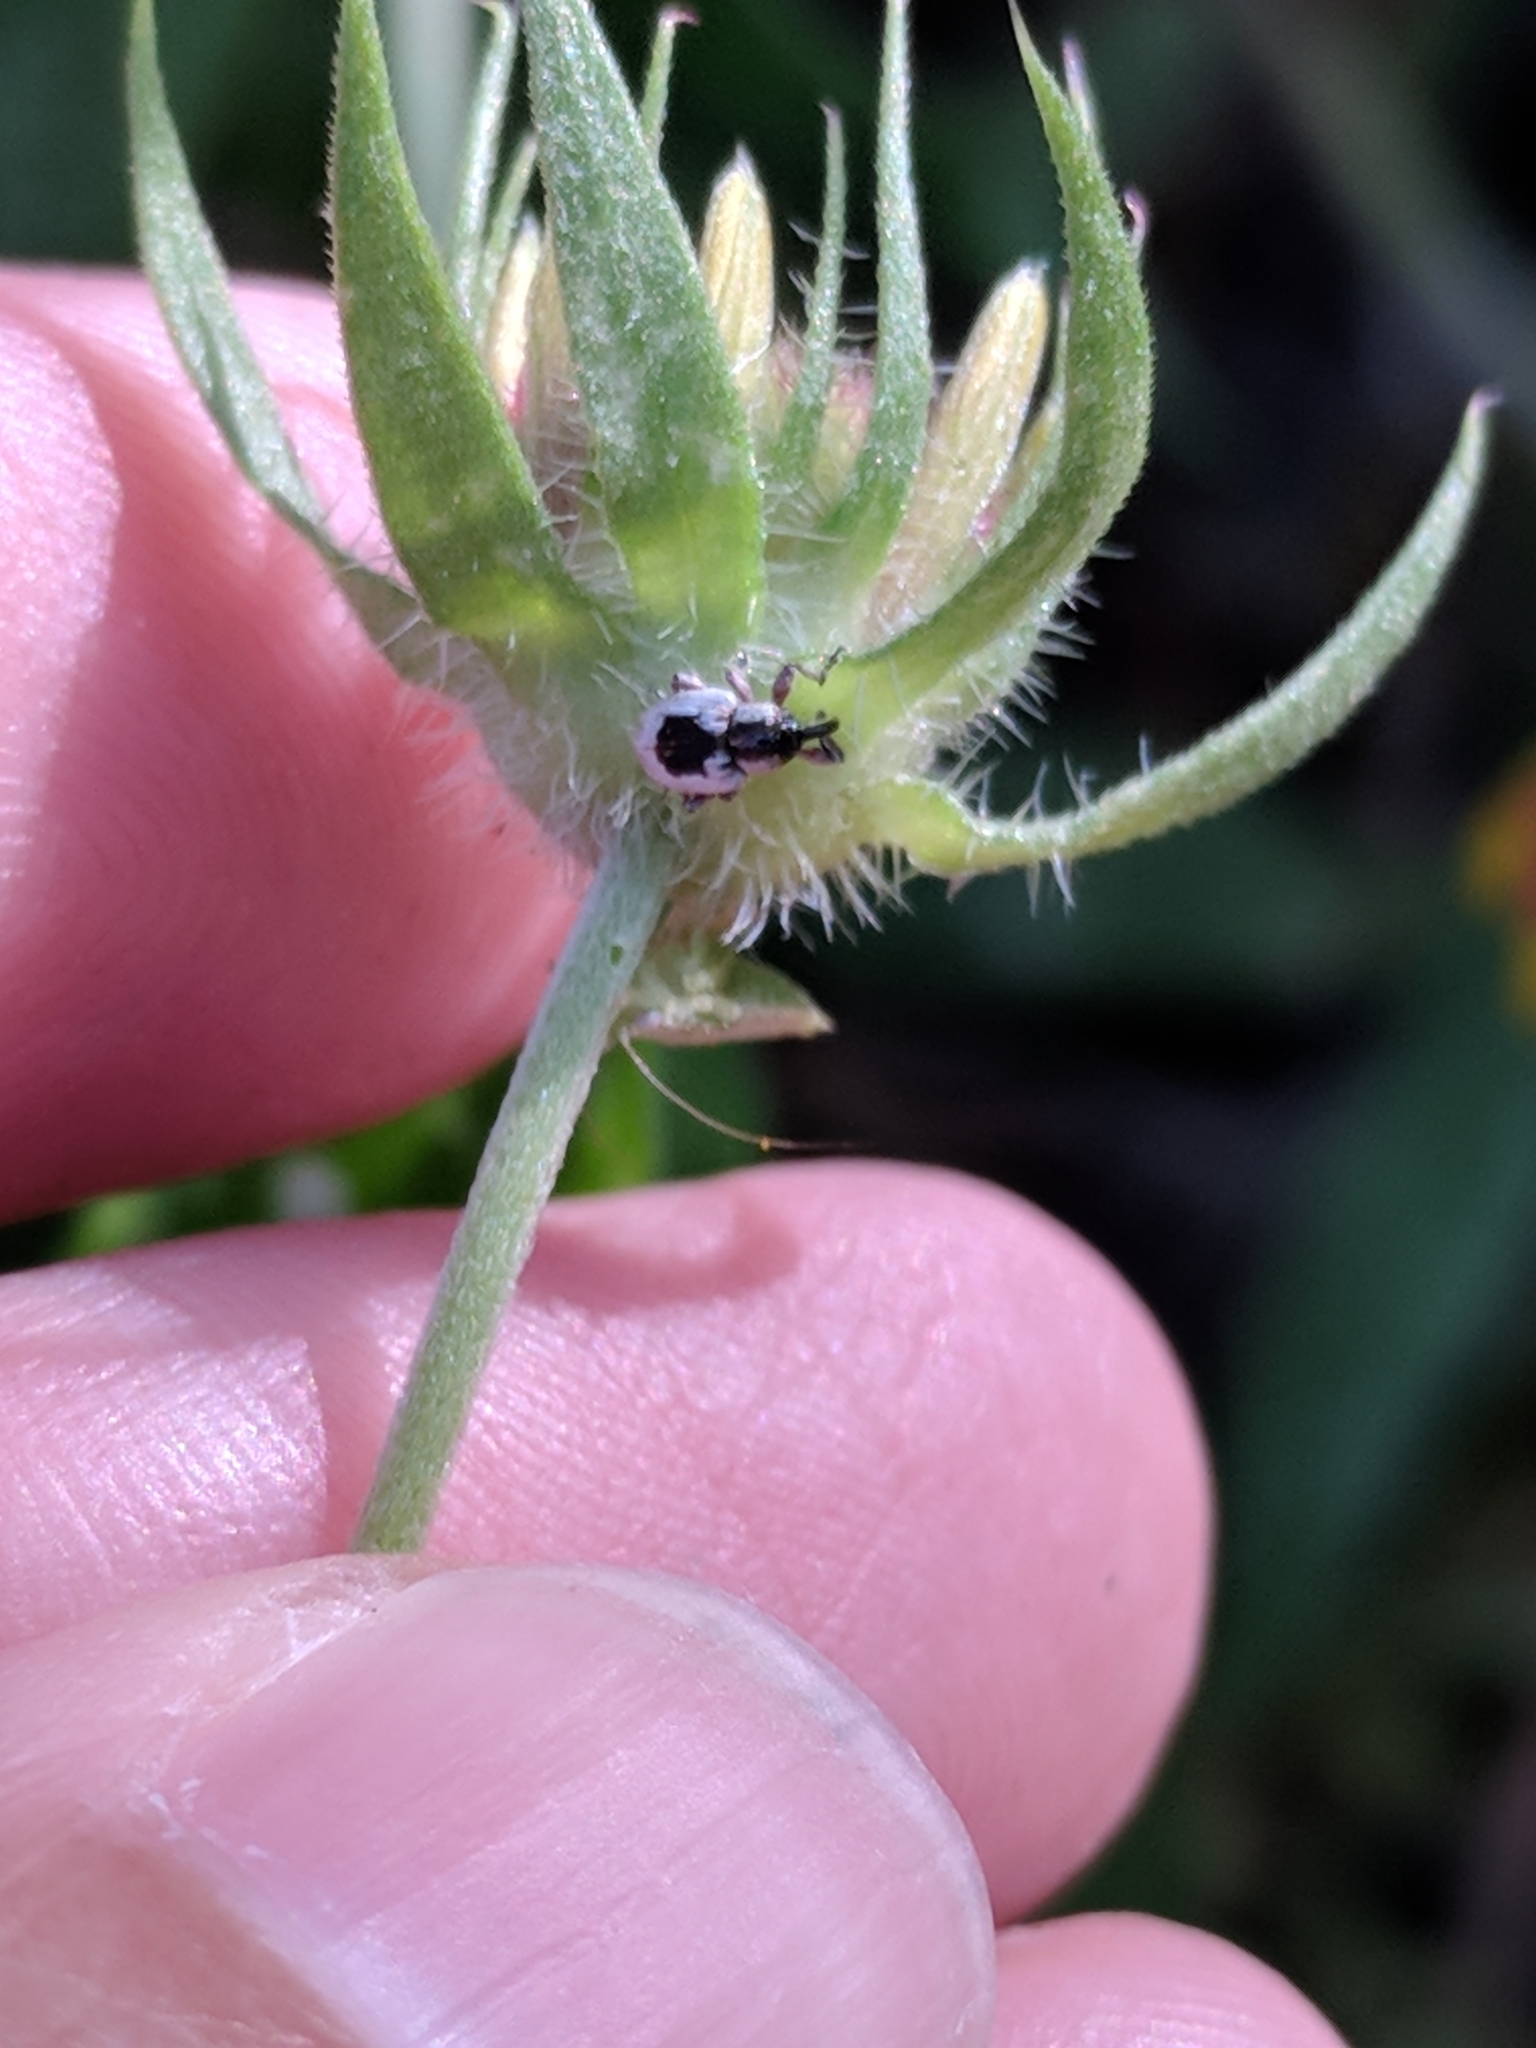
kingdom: Animalia
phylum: Arthropoda
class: Insecta
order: Coleoptera
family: Curculionidae
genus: Smicronyx
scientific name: Smicronyx quadrifer
